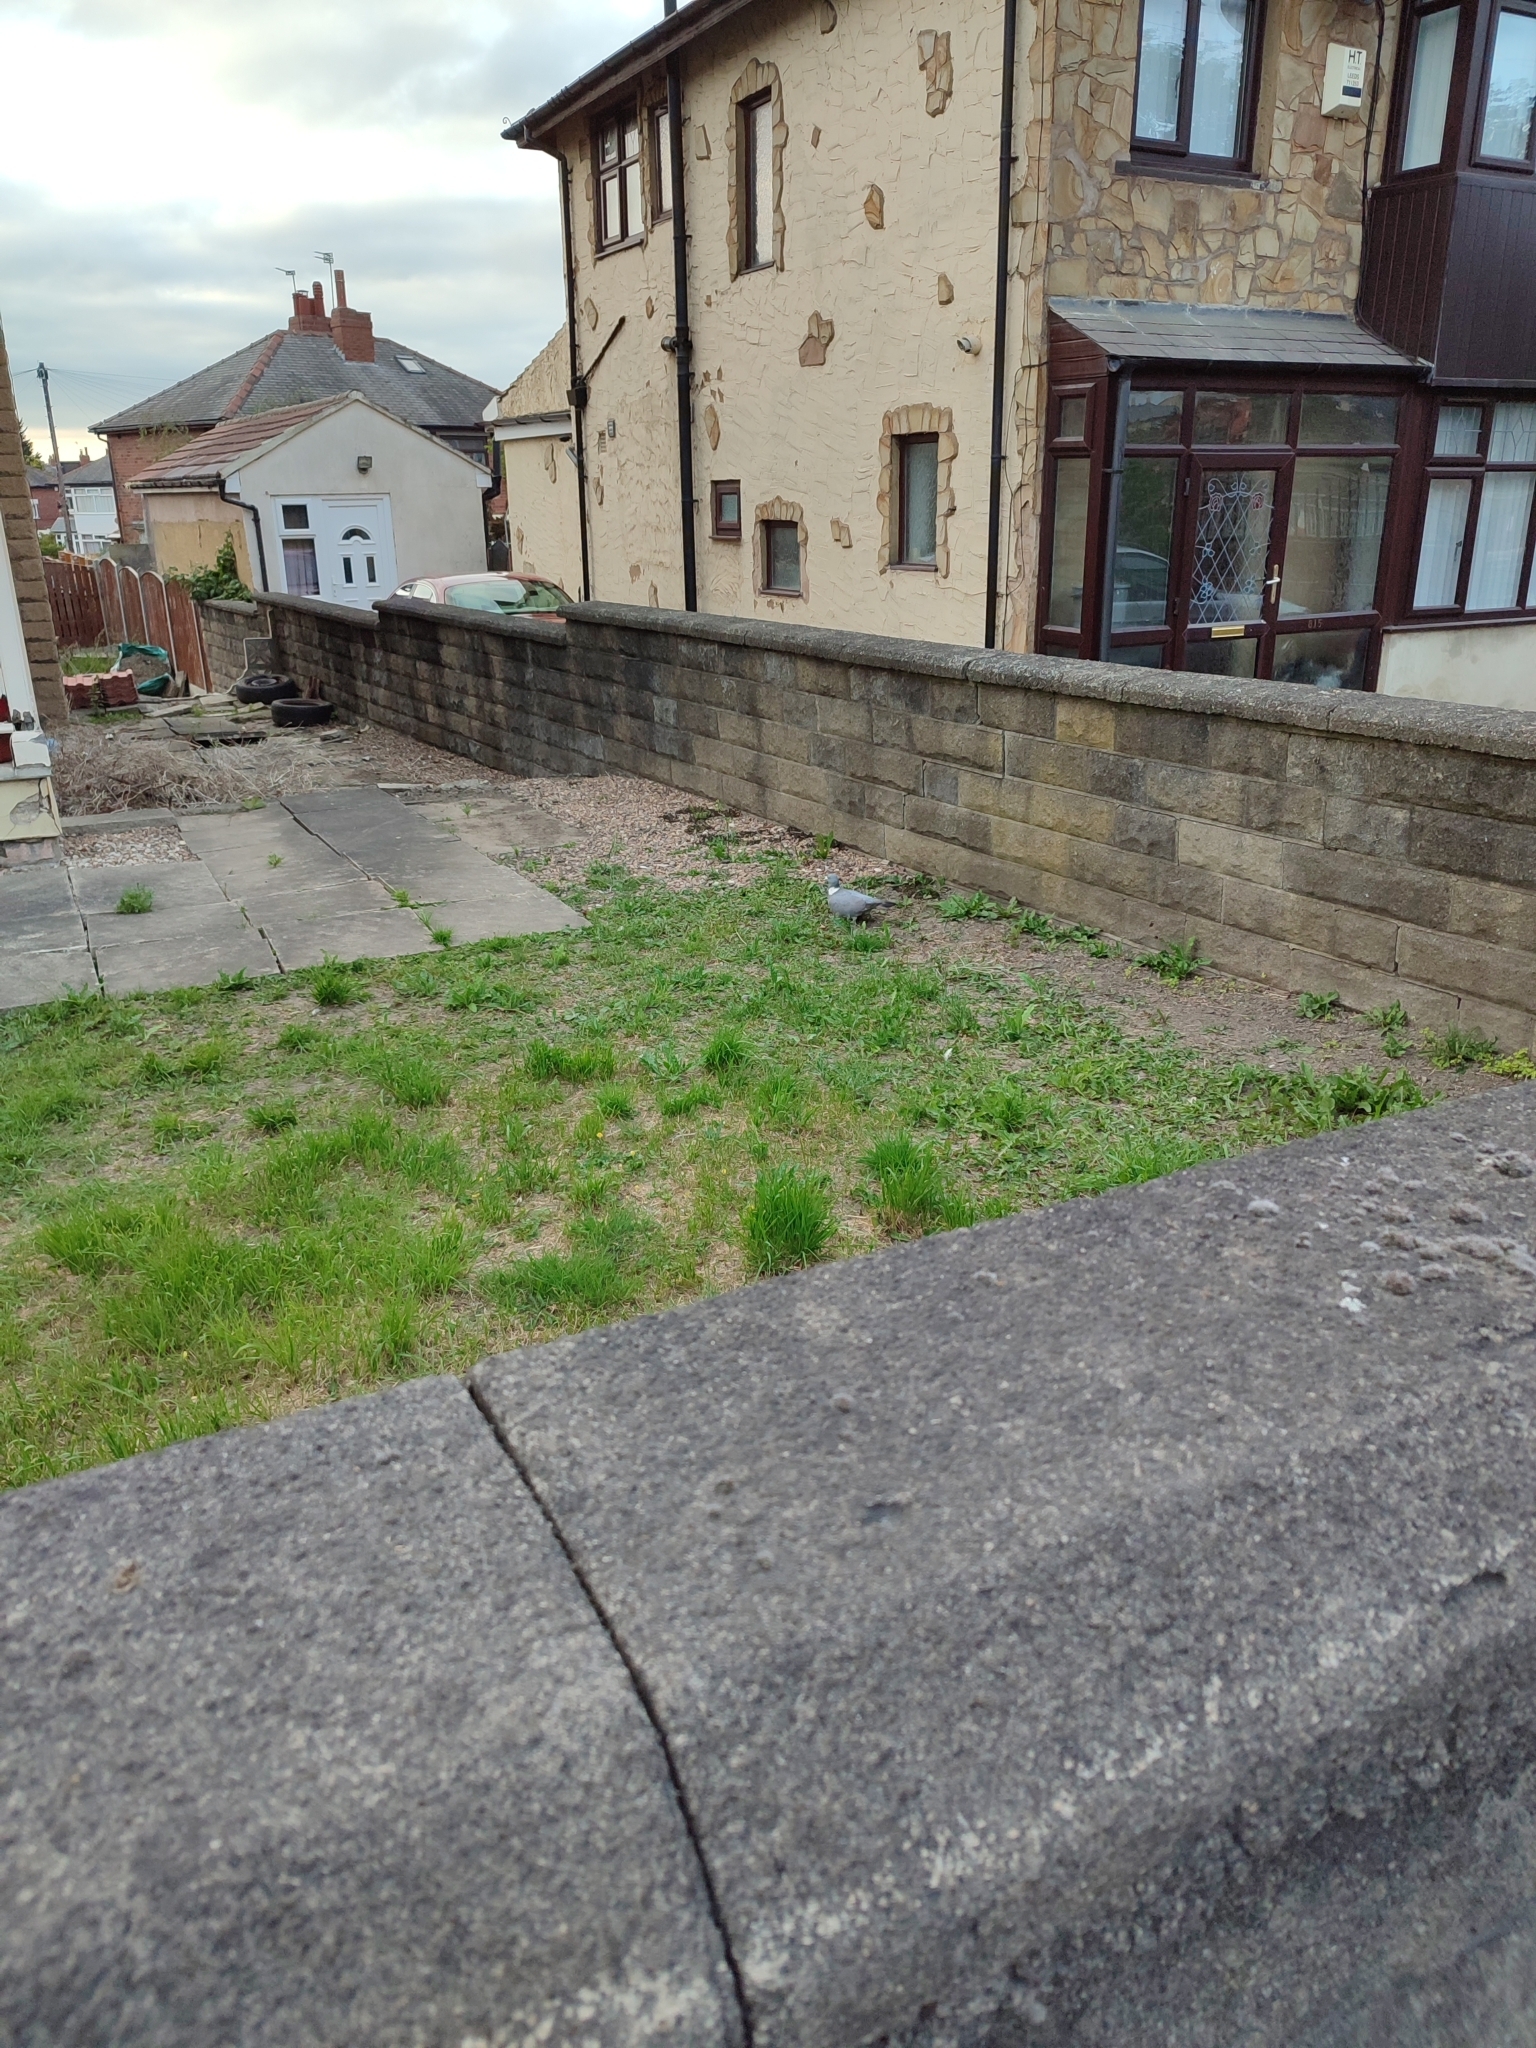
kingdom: Animalia
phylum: Chordata
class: Aves
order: Columbiformes
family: Columbidae
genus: Columba
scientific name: Columba palumbus
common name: Common wood pigeon
